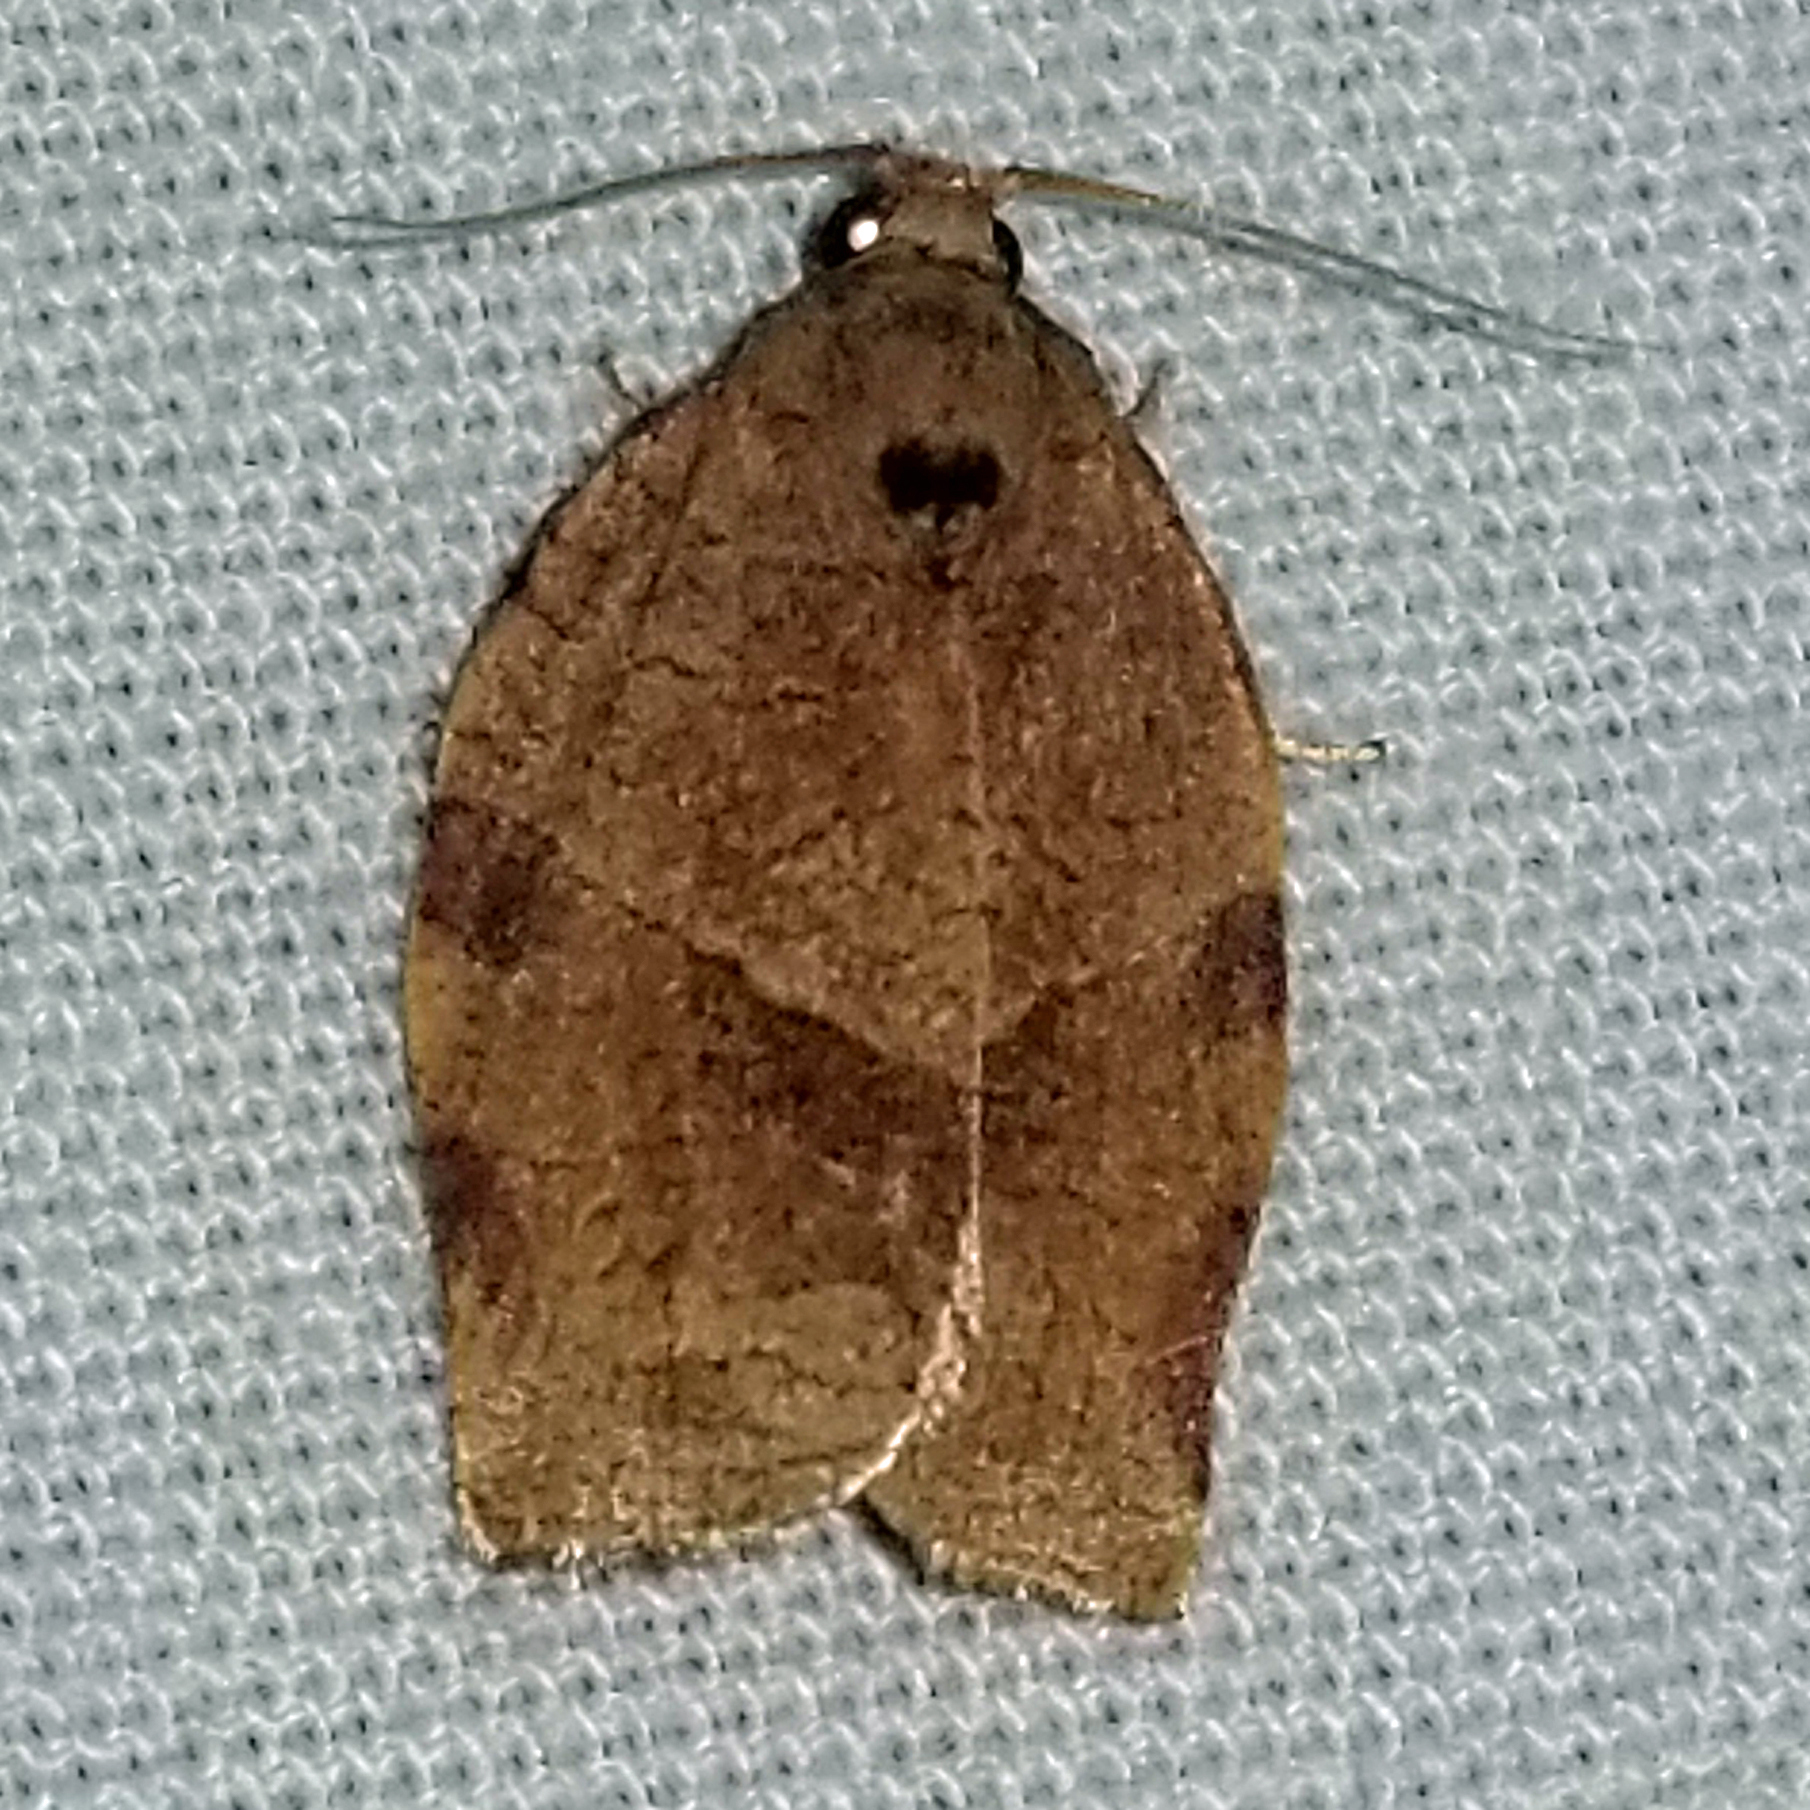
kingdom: Animalia
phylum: Arthropoda
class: Insecta
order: Lepidoptera
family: Tortricidae
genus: Choristoneura
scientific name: Choristoneura rosaceana
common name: Oblique-banded leafroller moth
